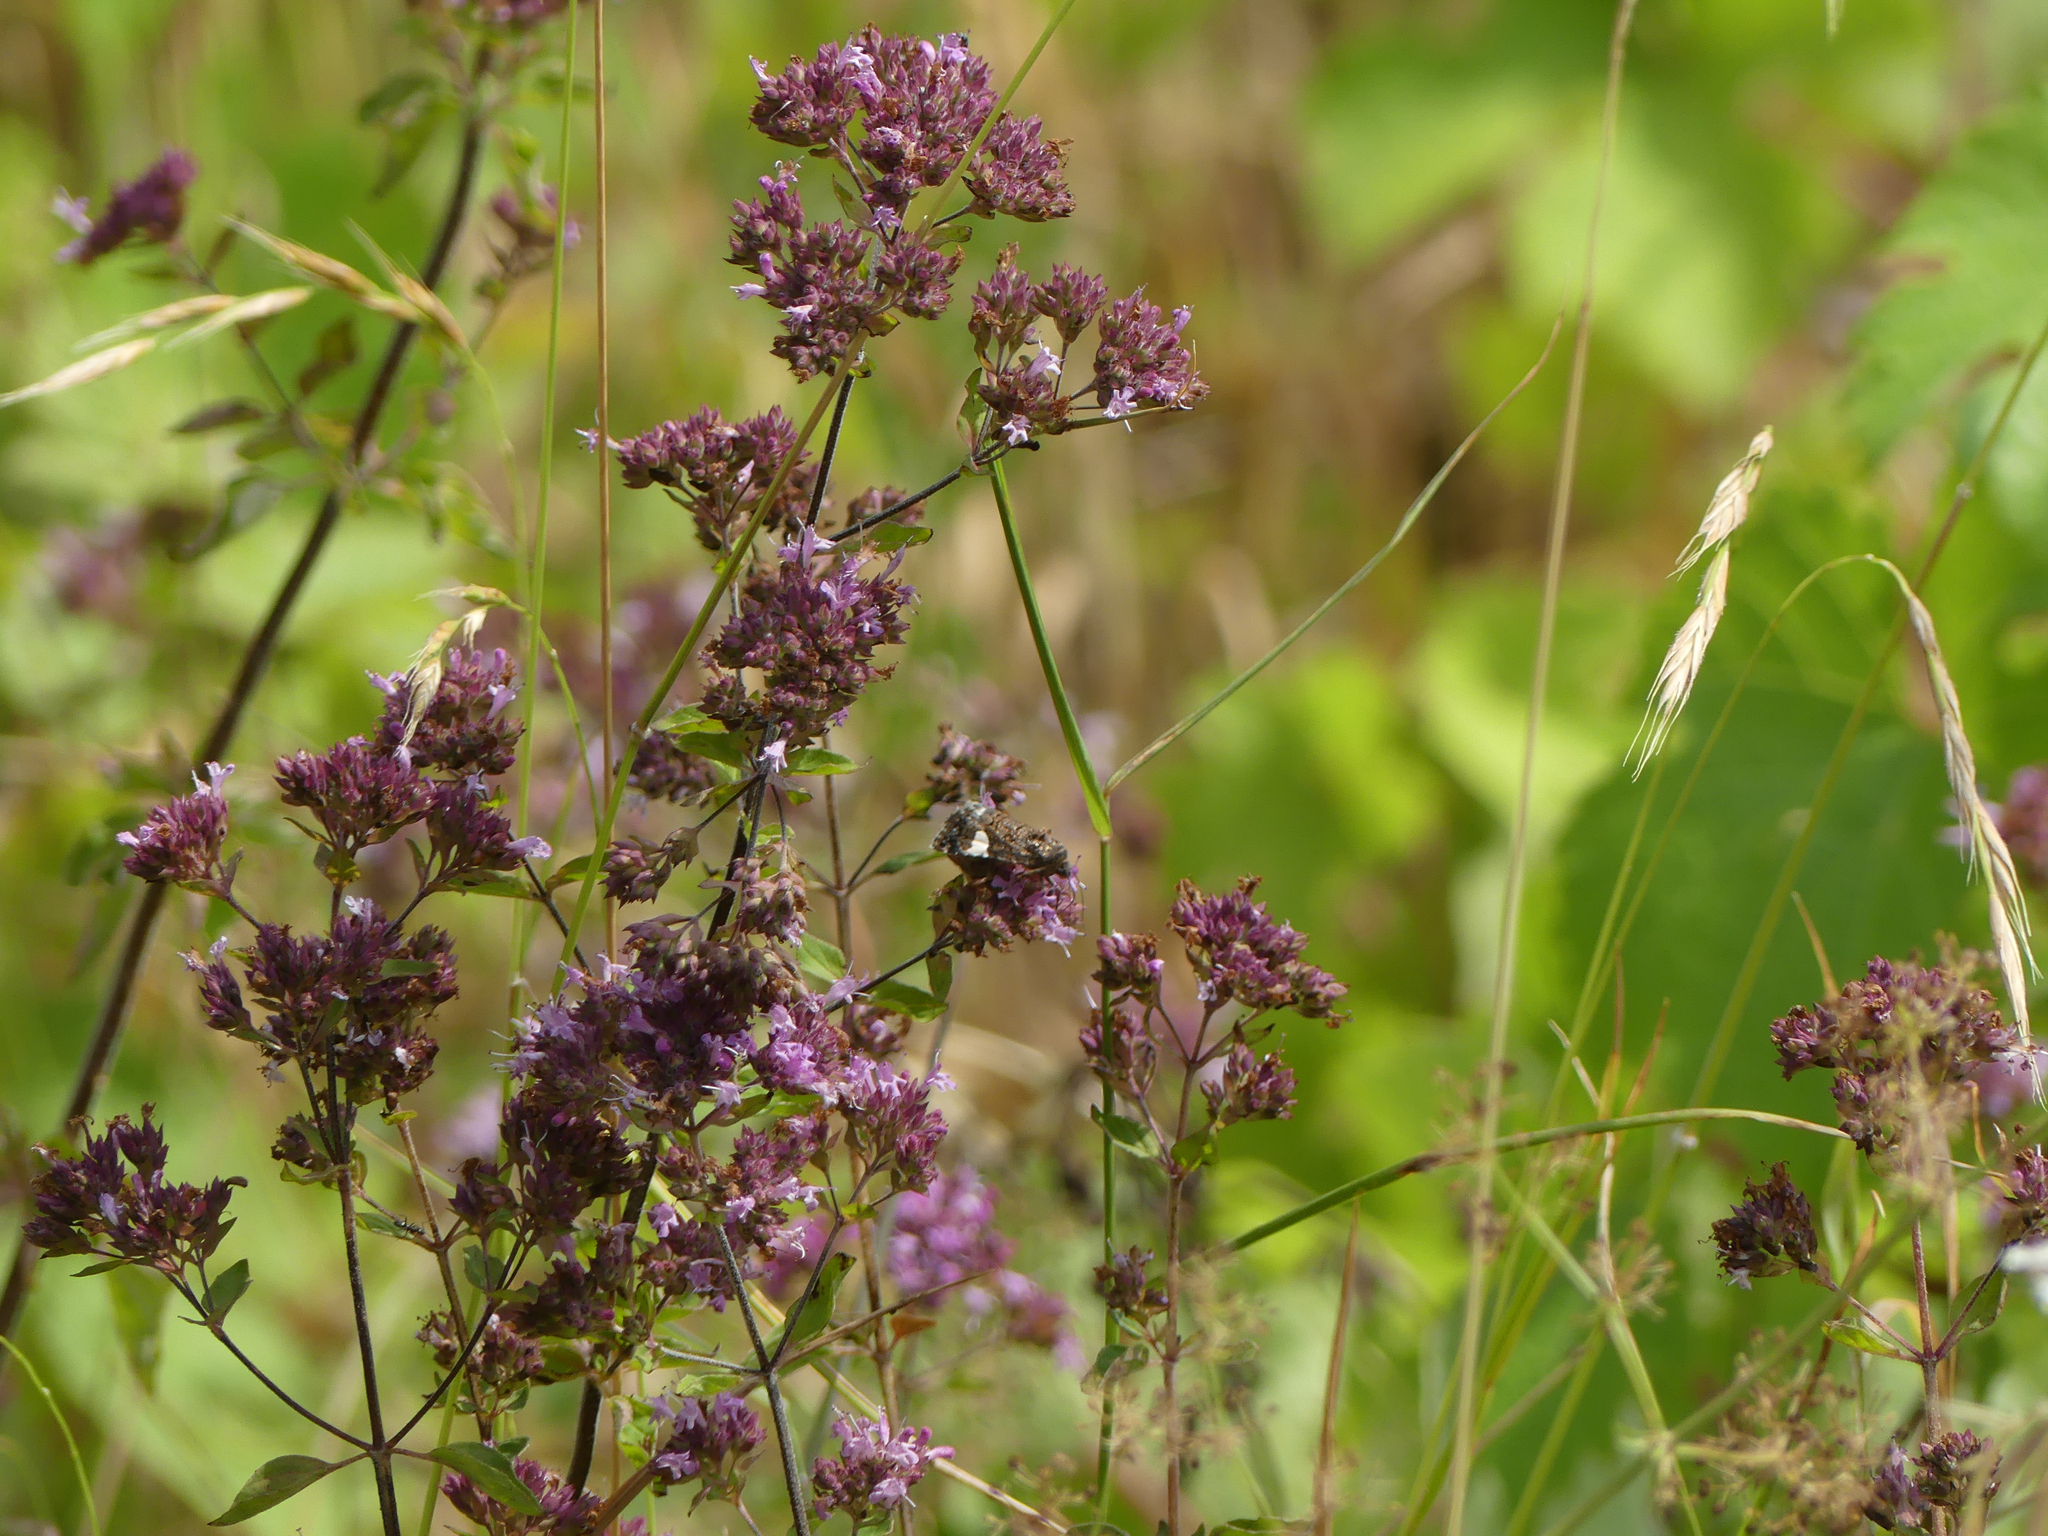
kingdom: Plantae
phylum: Tracheophyta
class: Magnoliopsida
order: Lamiales
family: Lamiaceae
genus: Origanum
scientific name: Origanum vulgare
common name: Wild marjoram
